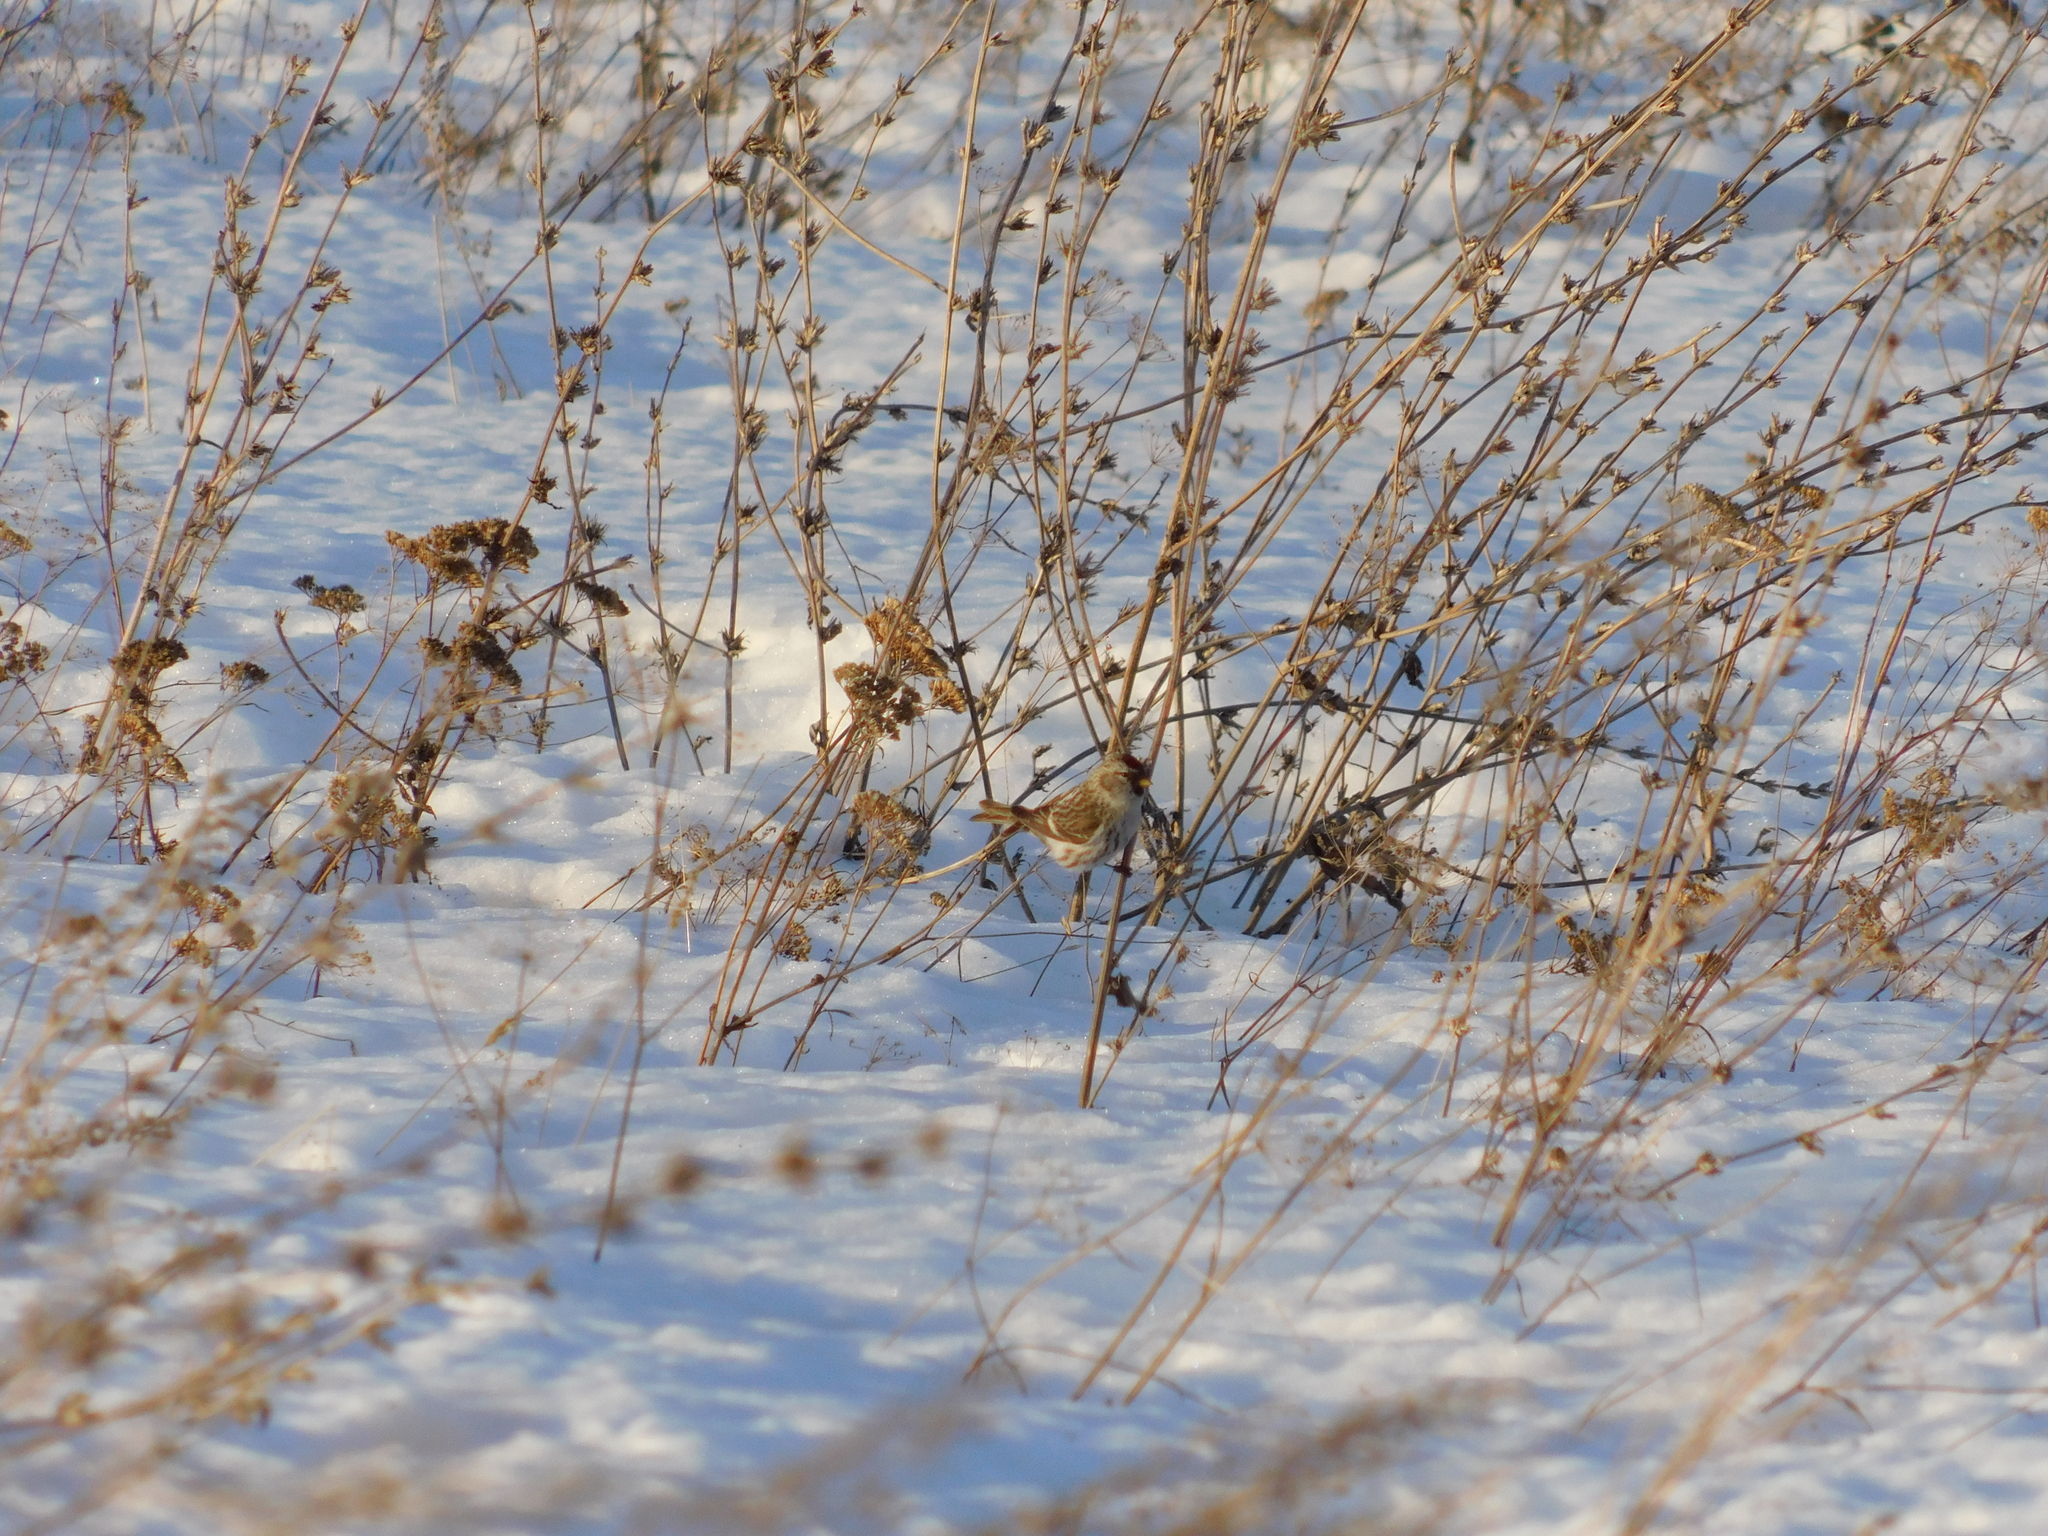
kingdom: Animalia
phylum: Chordata
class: Aves
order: Passeriformes
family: Fringillidae
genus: Acanthis
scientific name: Acanthis flammea
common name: Common redpoll
